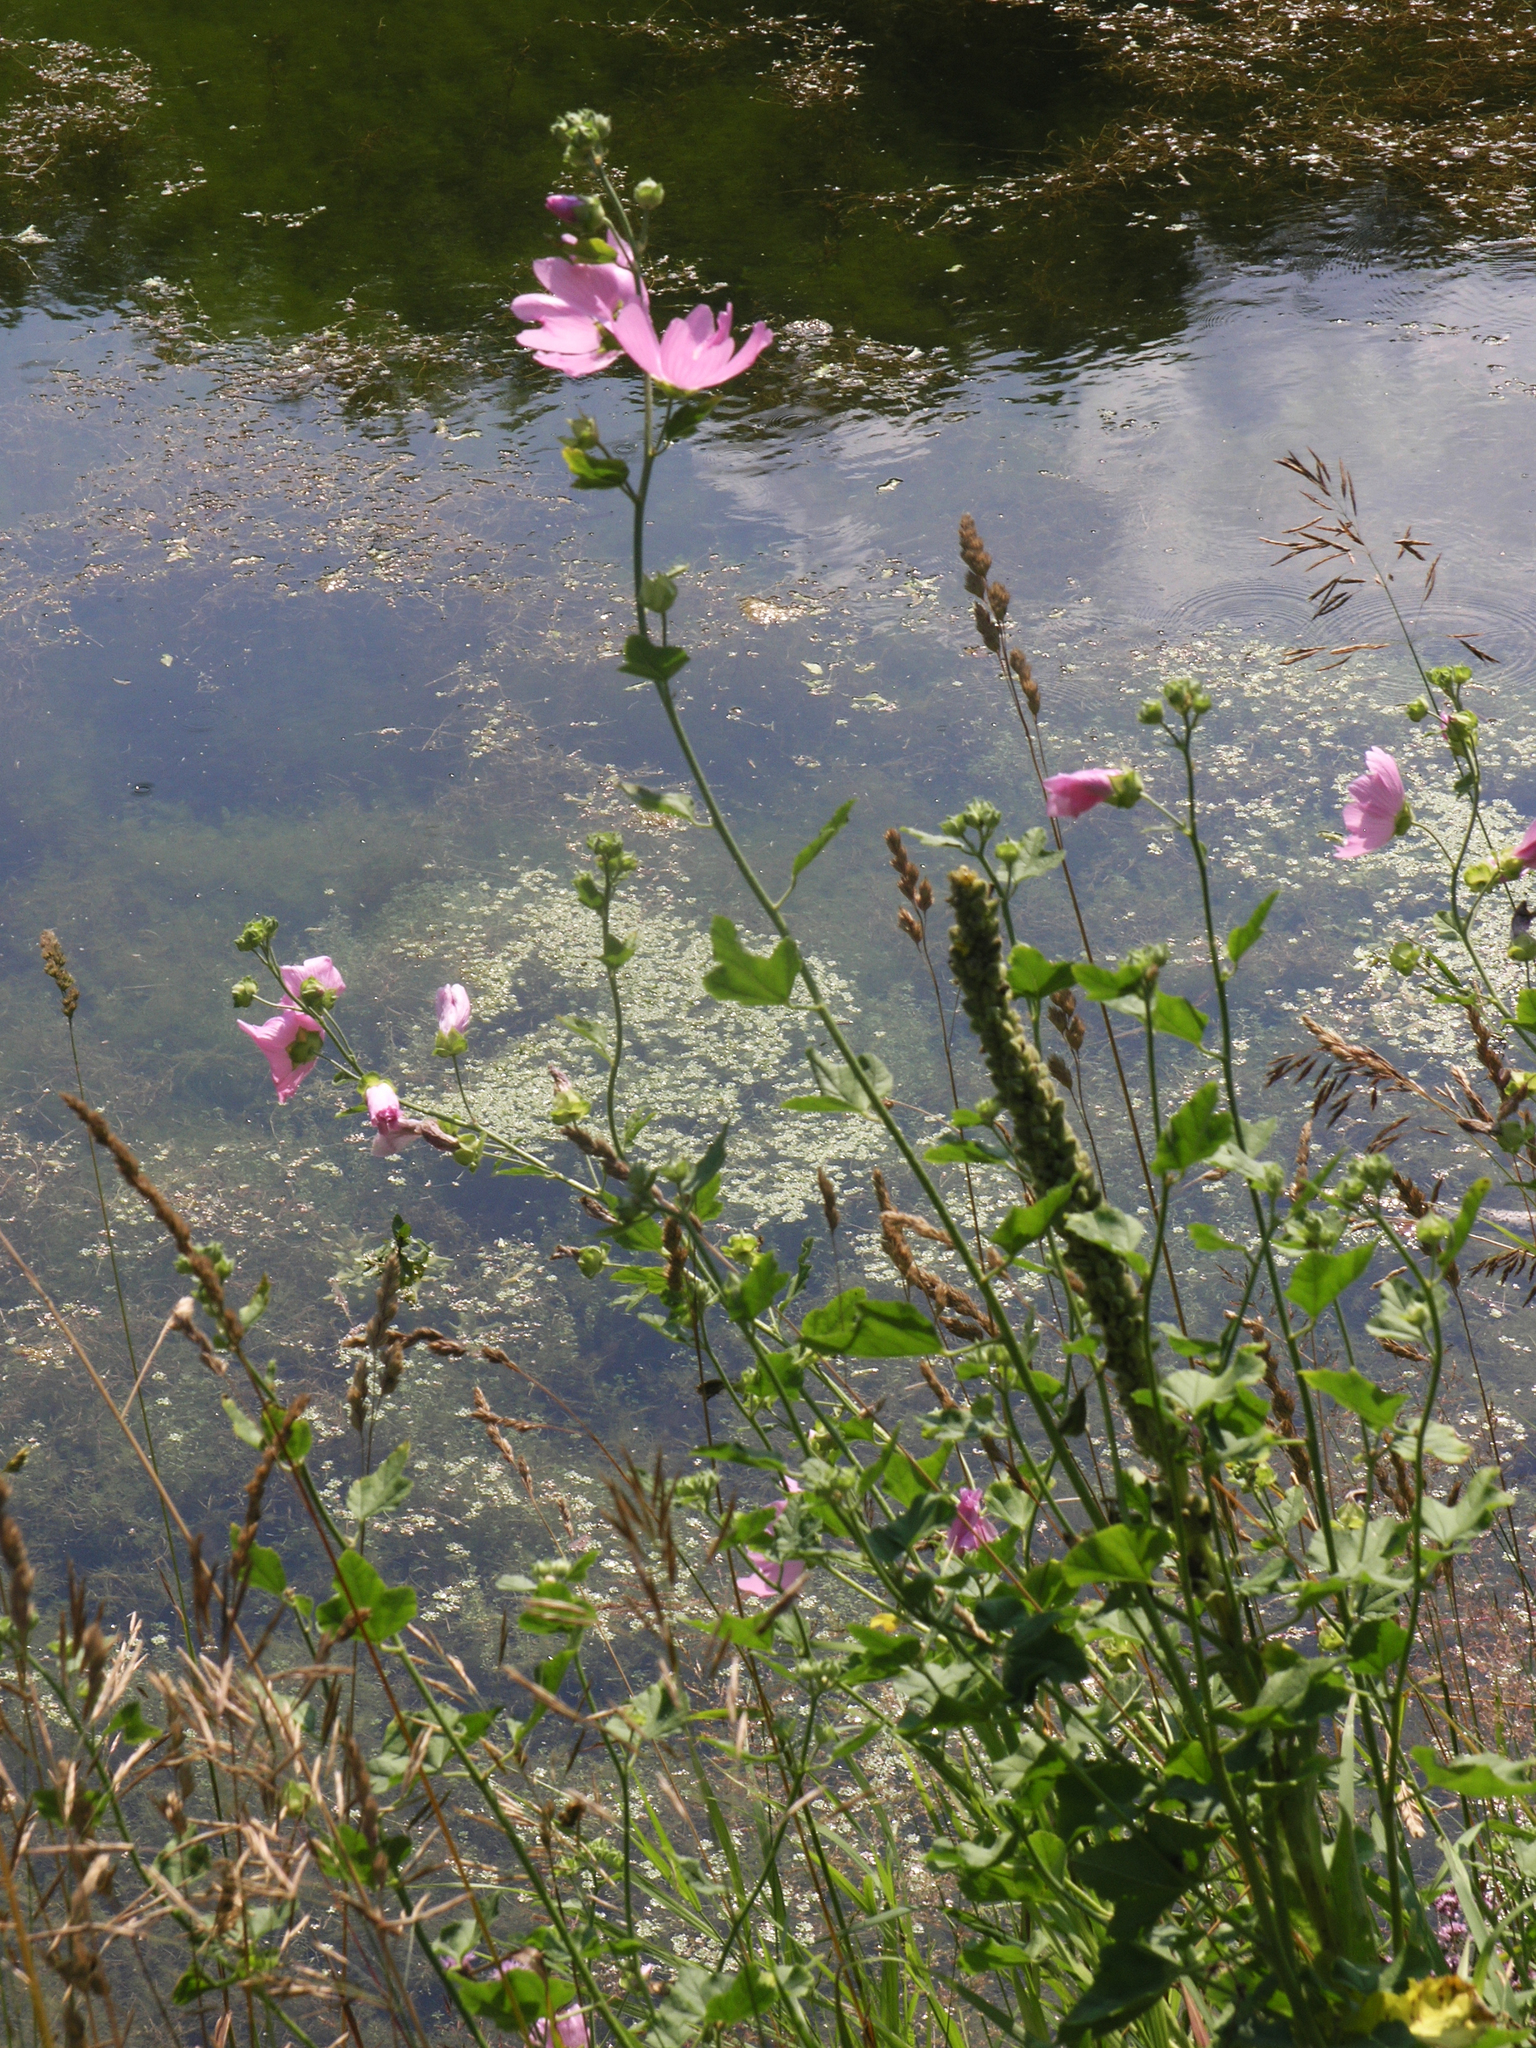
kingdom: Plantae
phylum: Tracheophyta
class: Magnoliopsida
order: Malvales
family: Malvaceae
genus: Malva
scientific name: Malva thuringiaca
